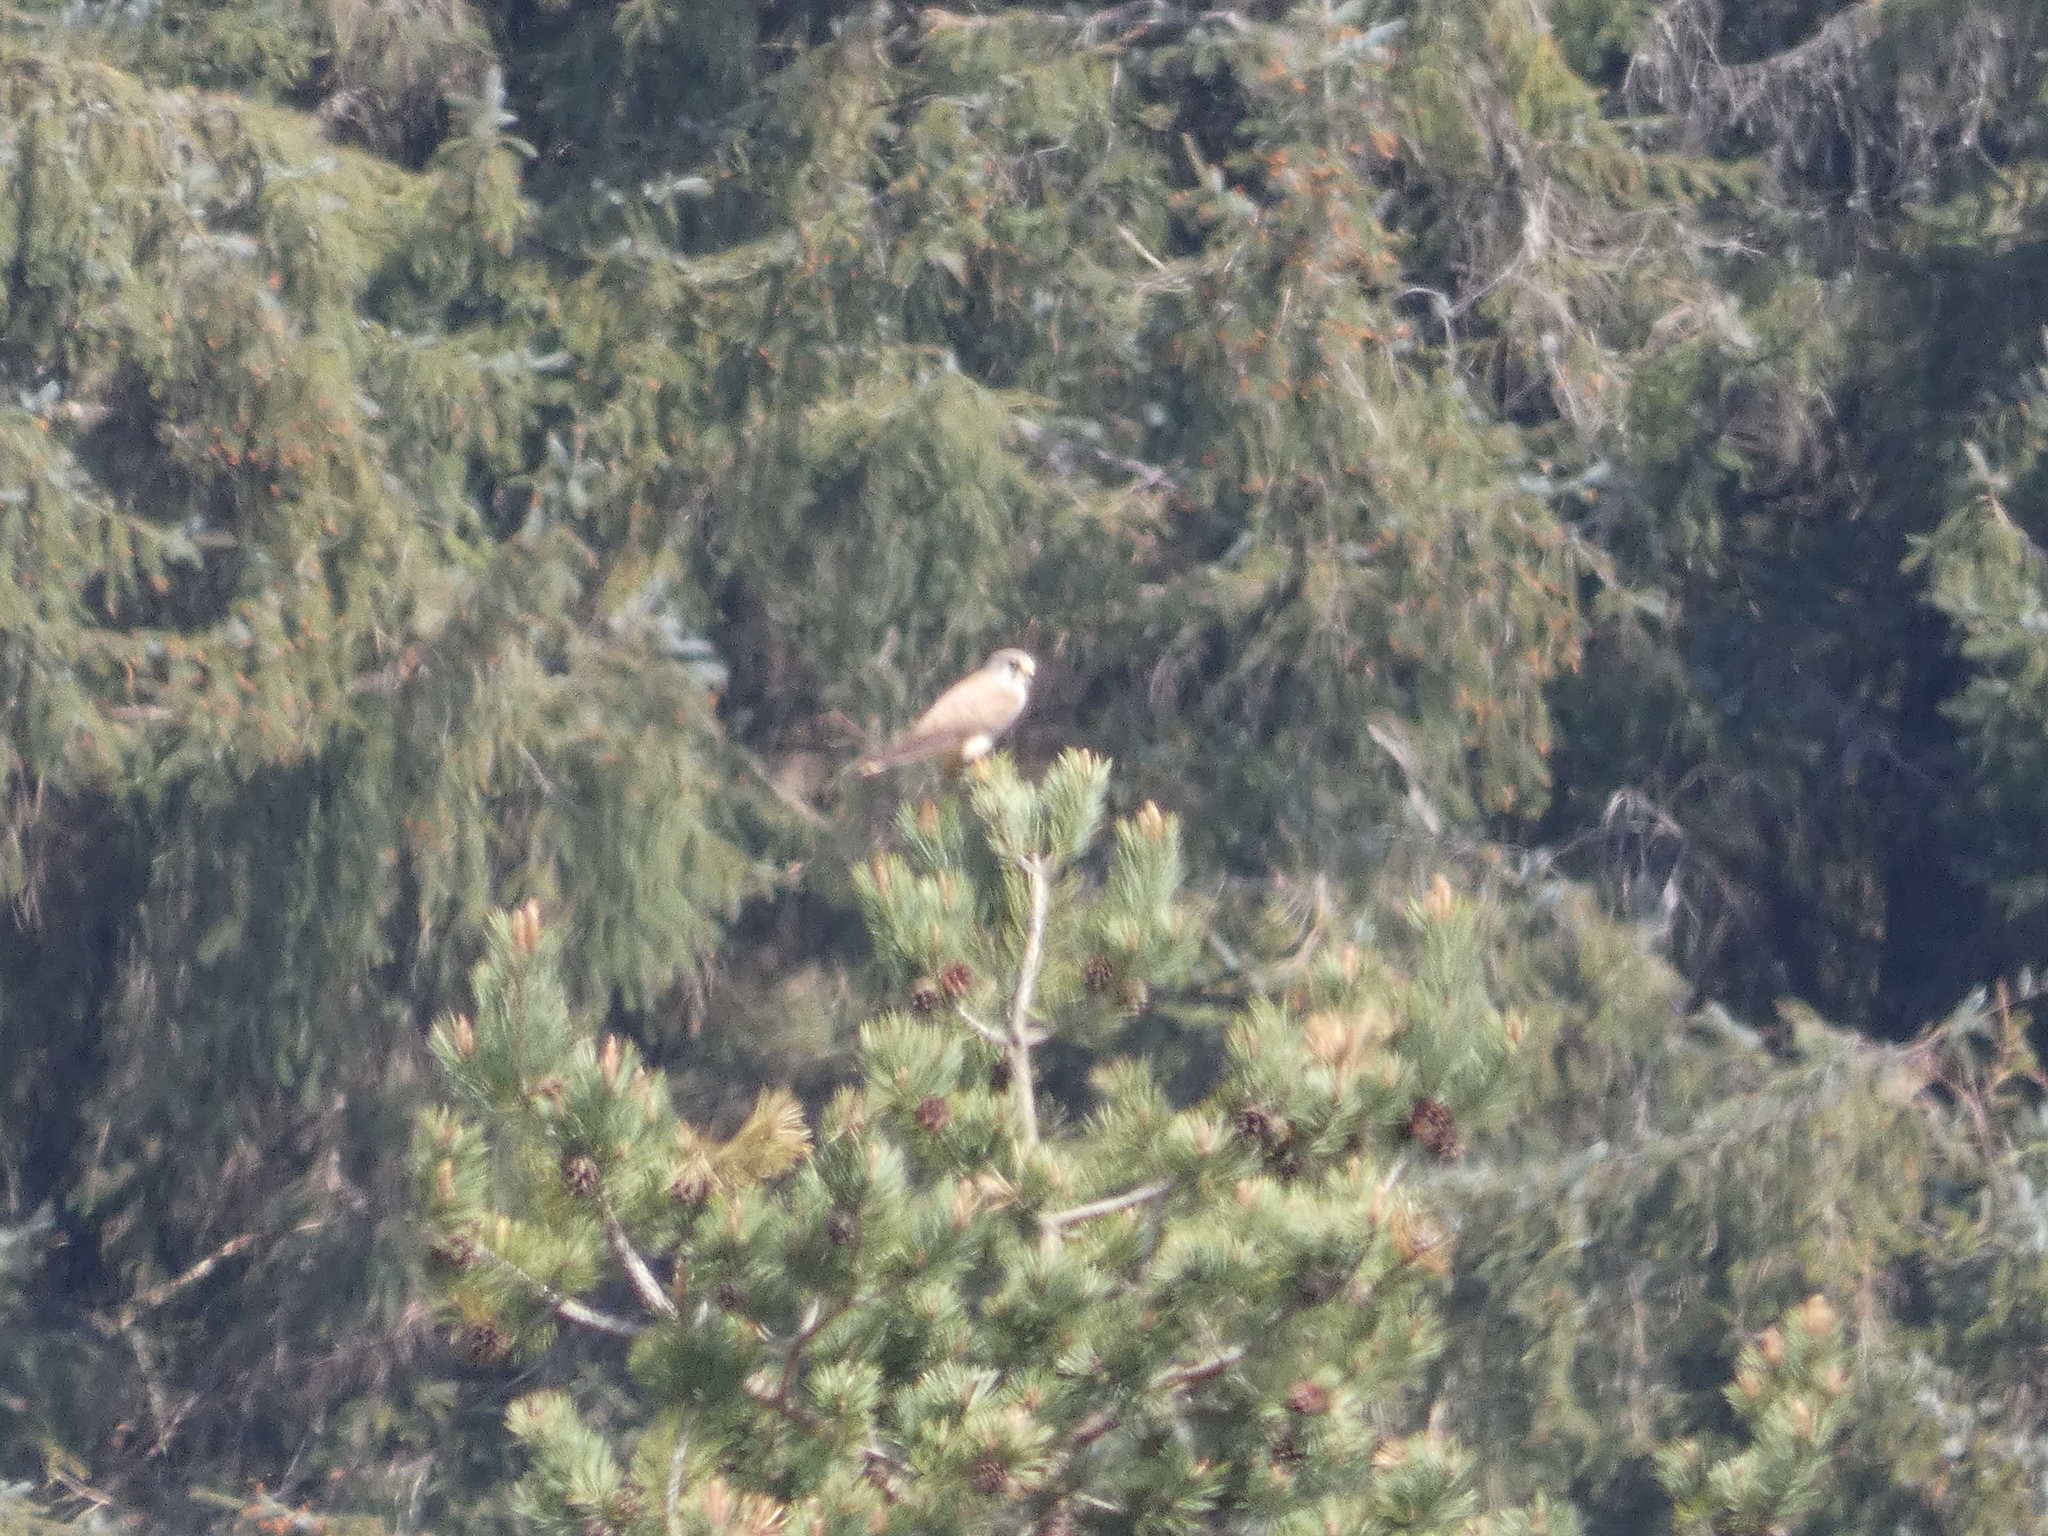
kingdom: Animalia
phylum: Chordata
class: Aves
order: Falconiformes
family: Falconidae
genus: Falco
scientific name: Falco tinnunculus
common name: Common kestrel
